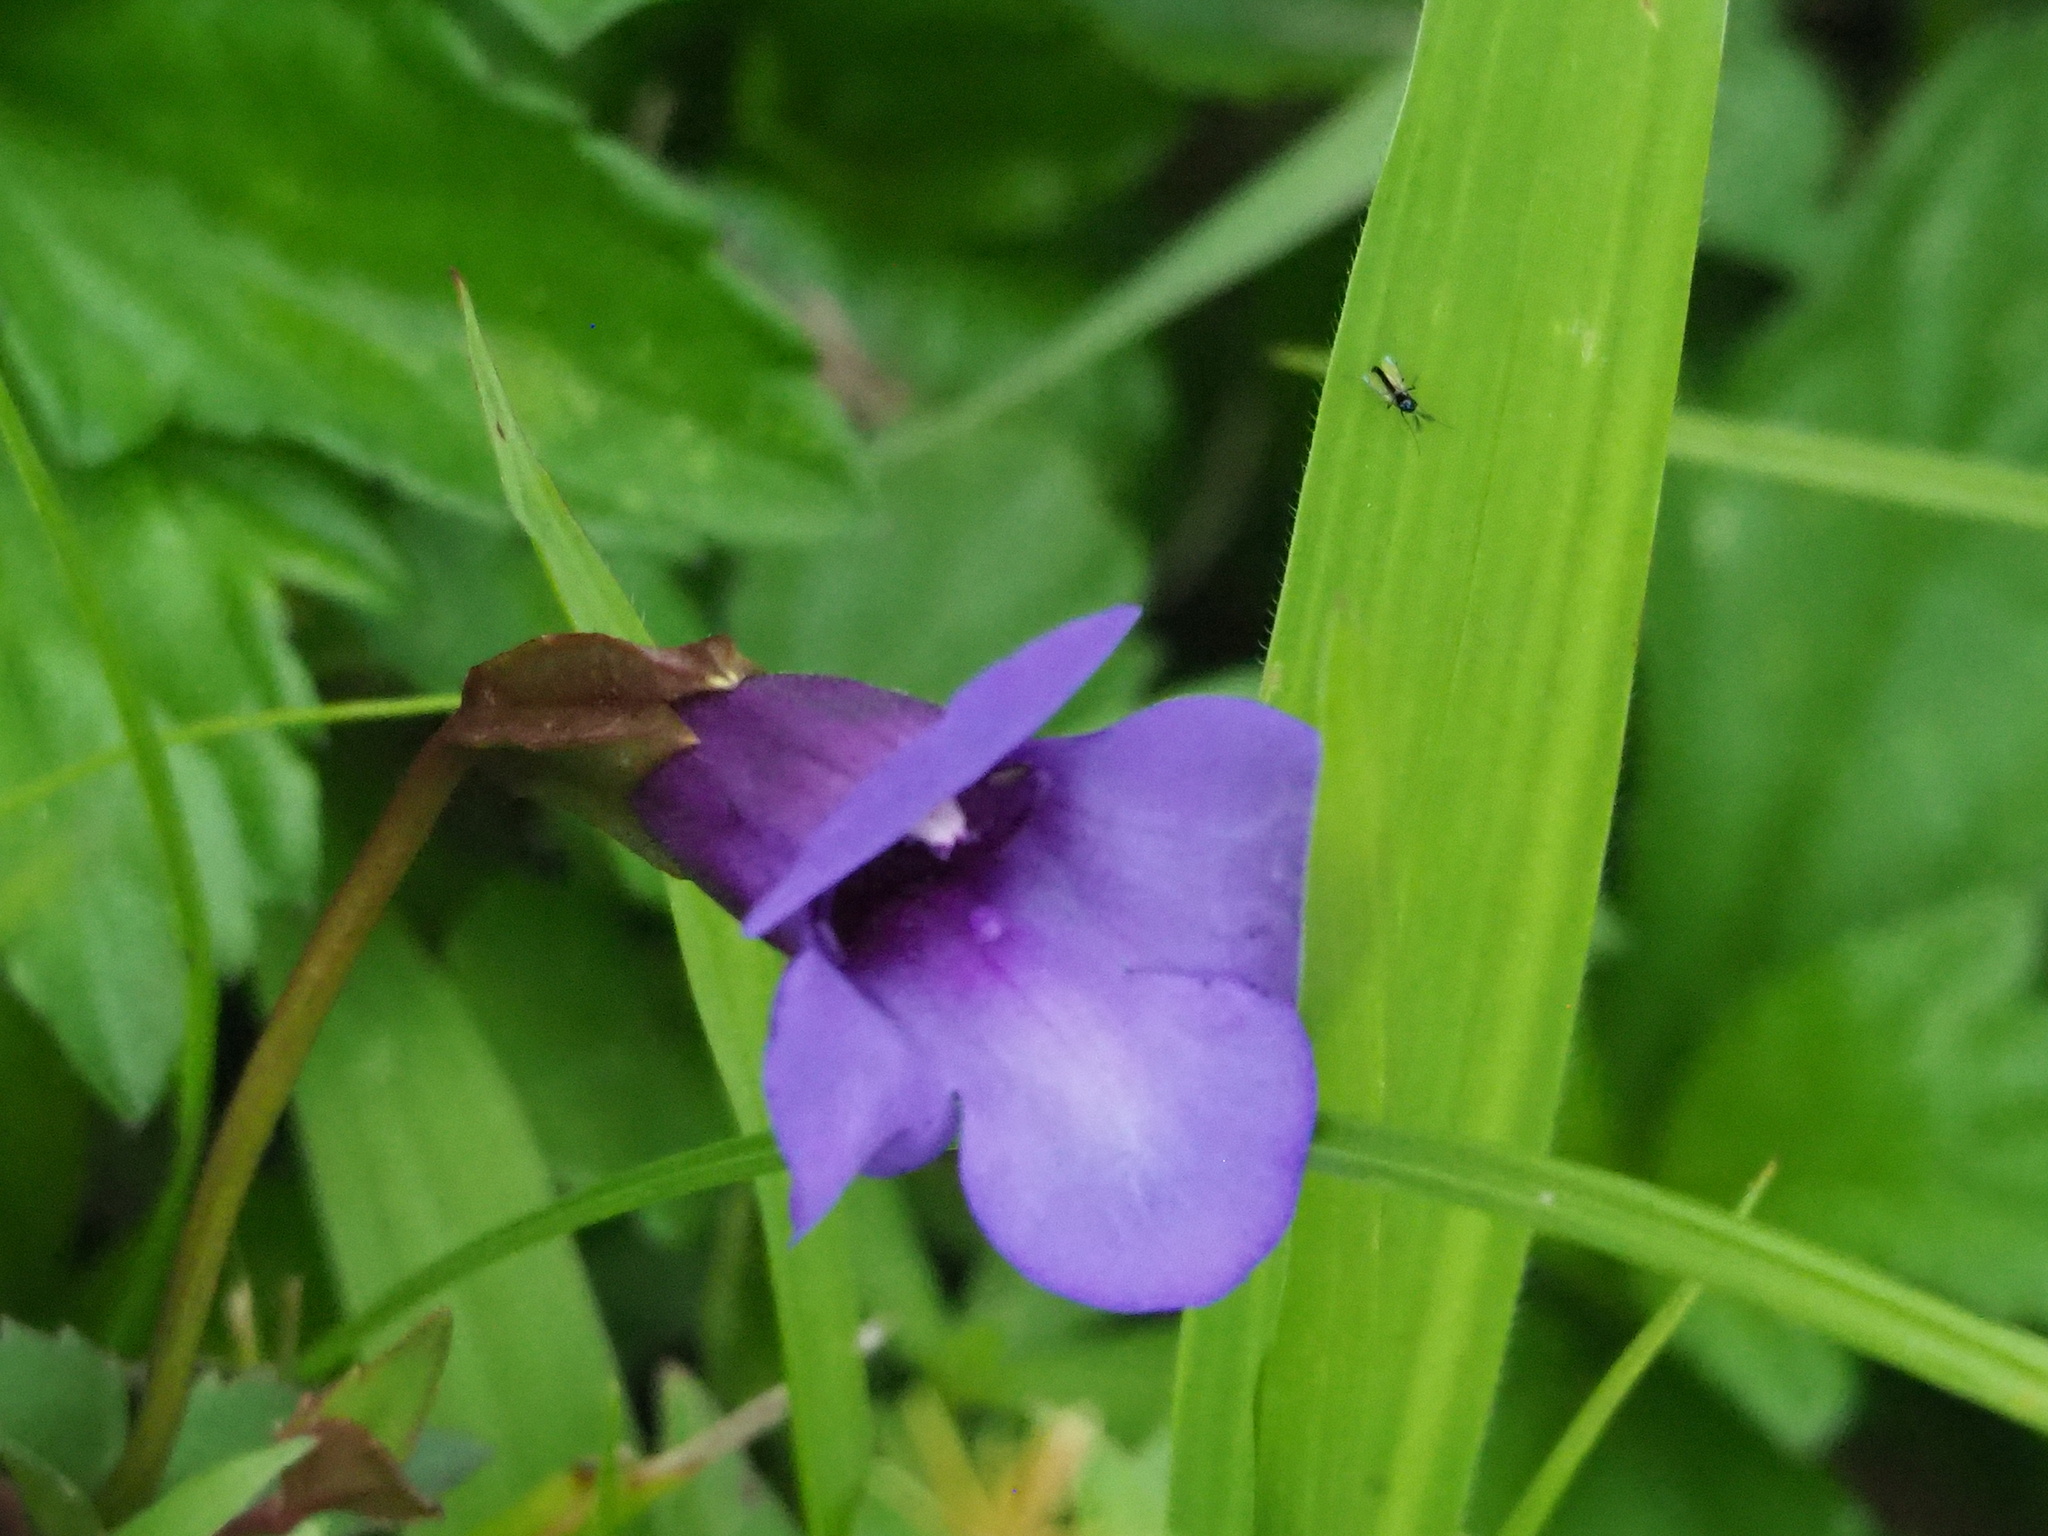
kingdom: Plantae
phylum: Tracheophyta
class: Magnoliopsida
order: Lamiales
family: Linderniaceae
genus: Torenia
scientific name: Torenia concolor
